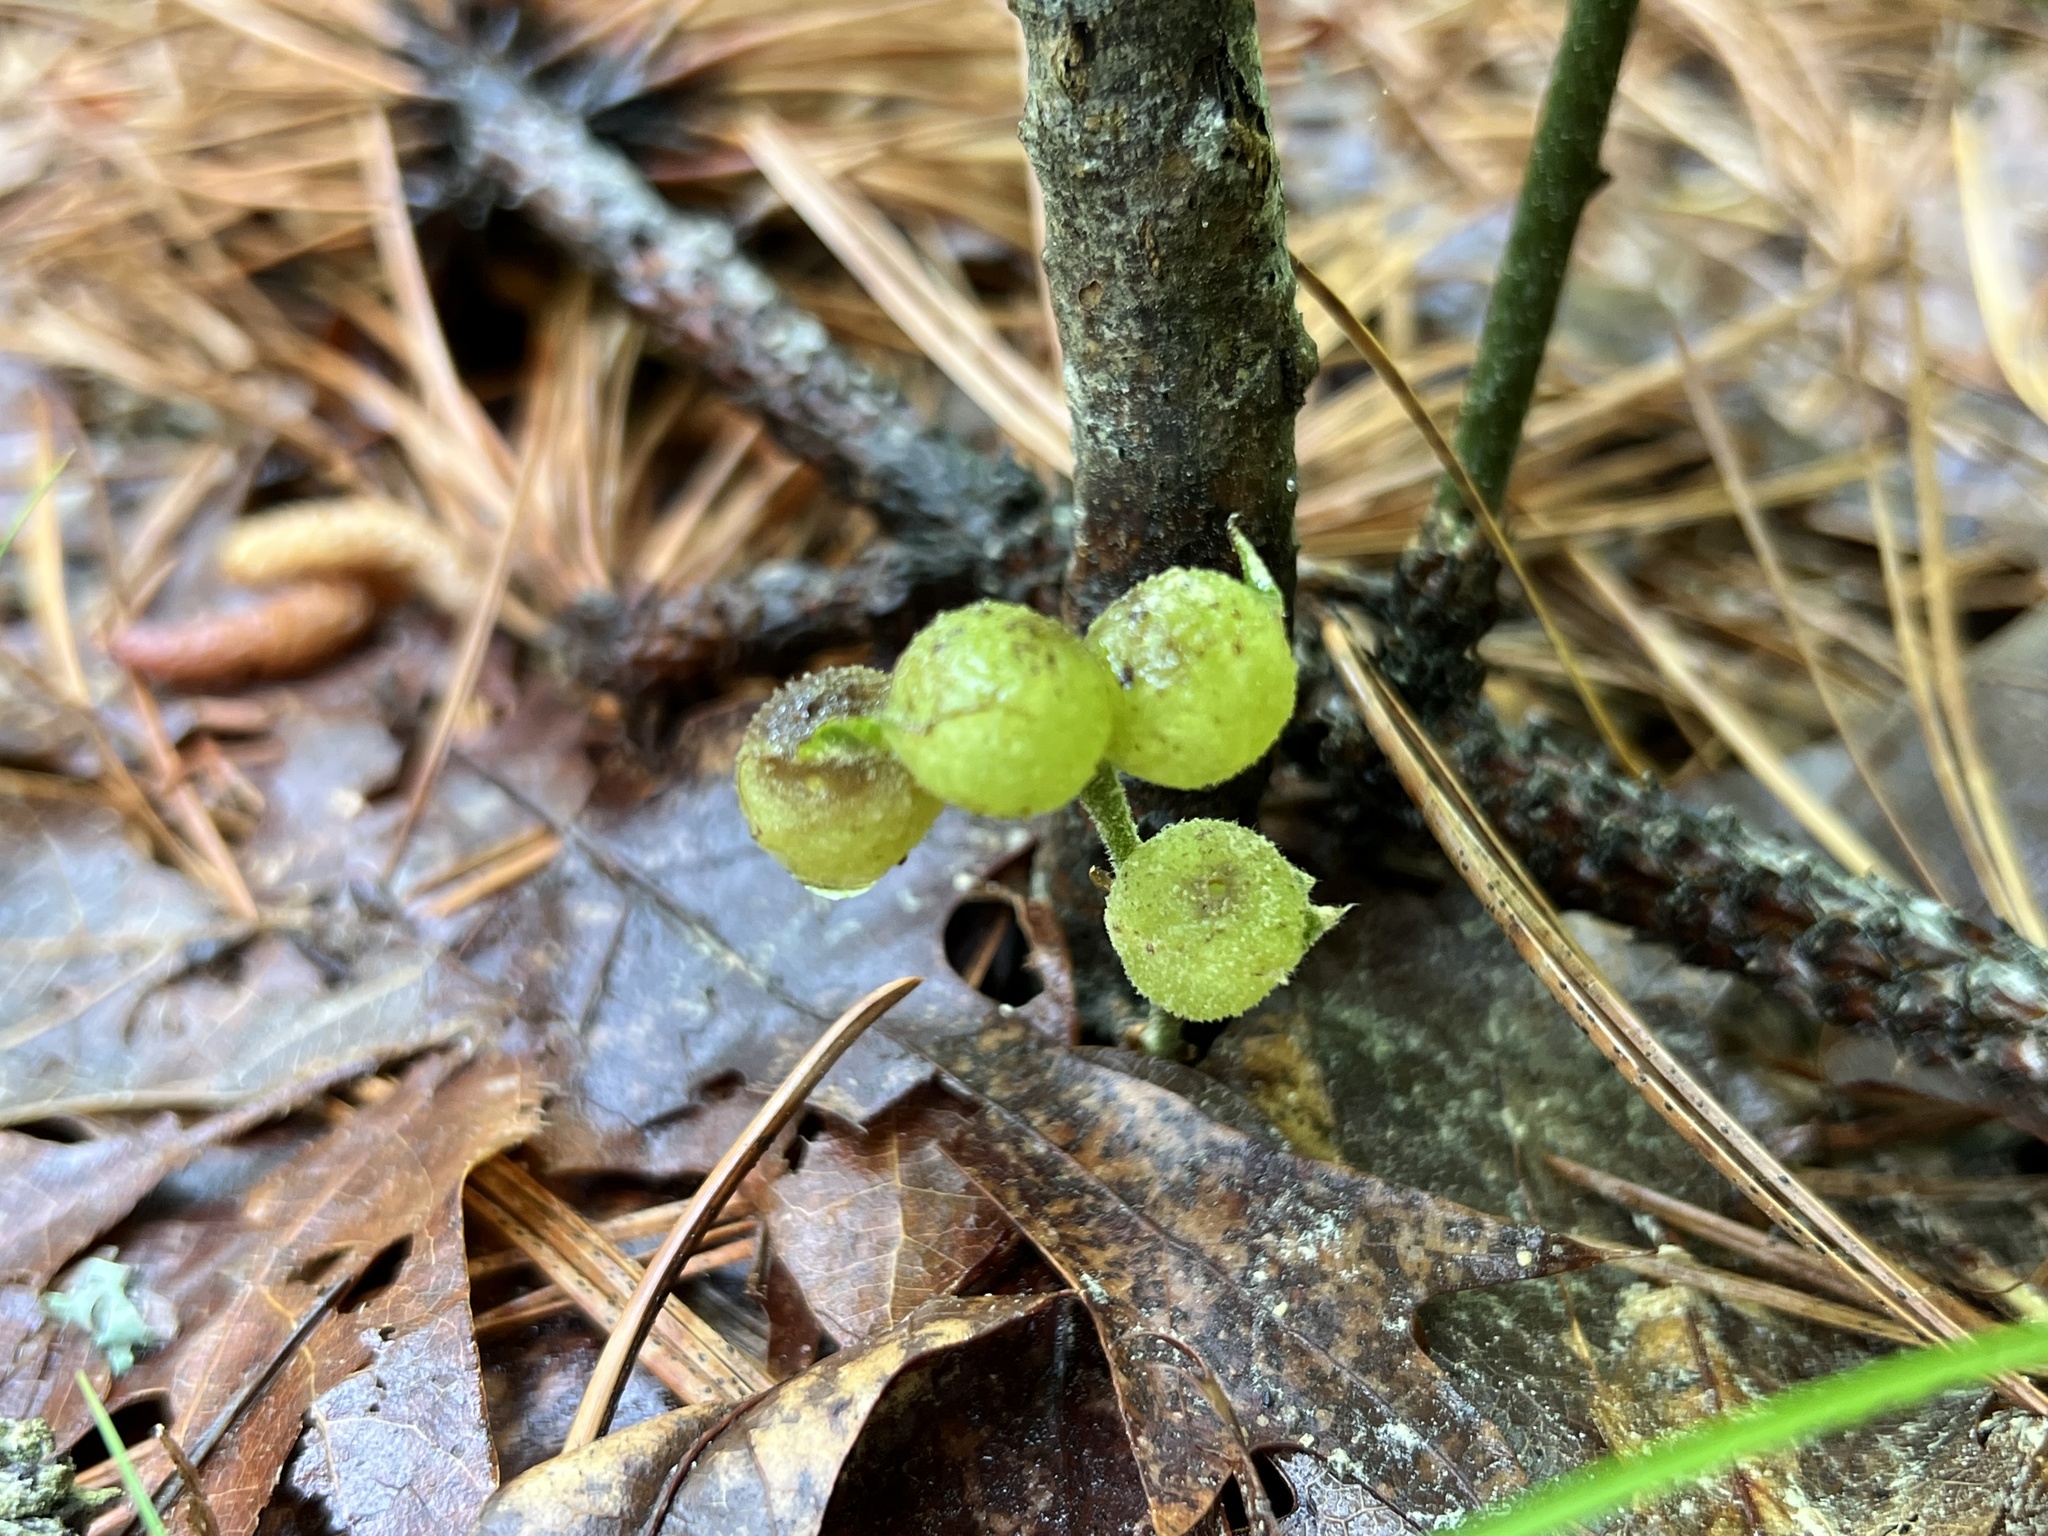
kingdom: Animalia
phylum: Arthropoda
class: Insecta
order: Hymenoptera
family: Cynipidae
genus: Dryocosmus
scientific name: Dryocosmus quercuspalustris
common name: Succulent oak gall wasp
